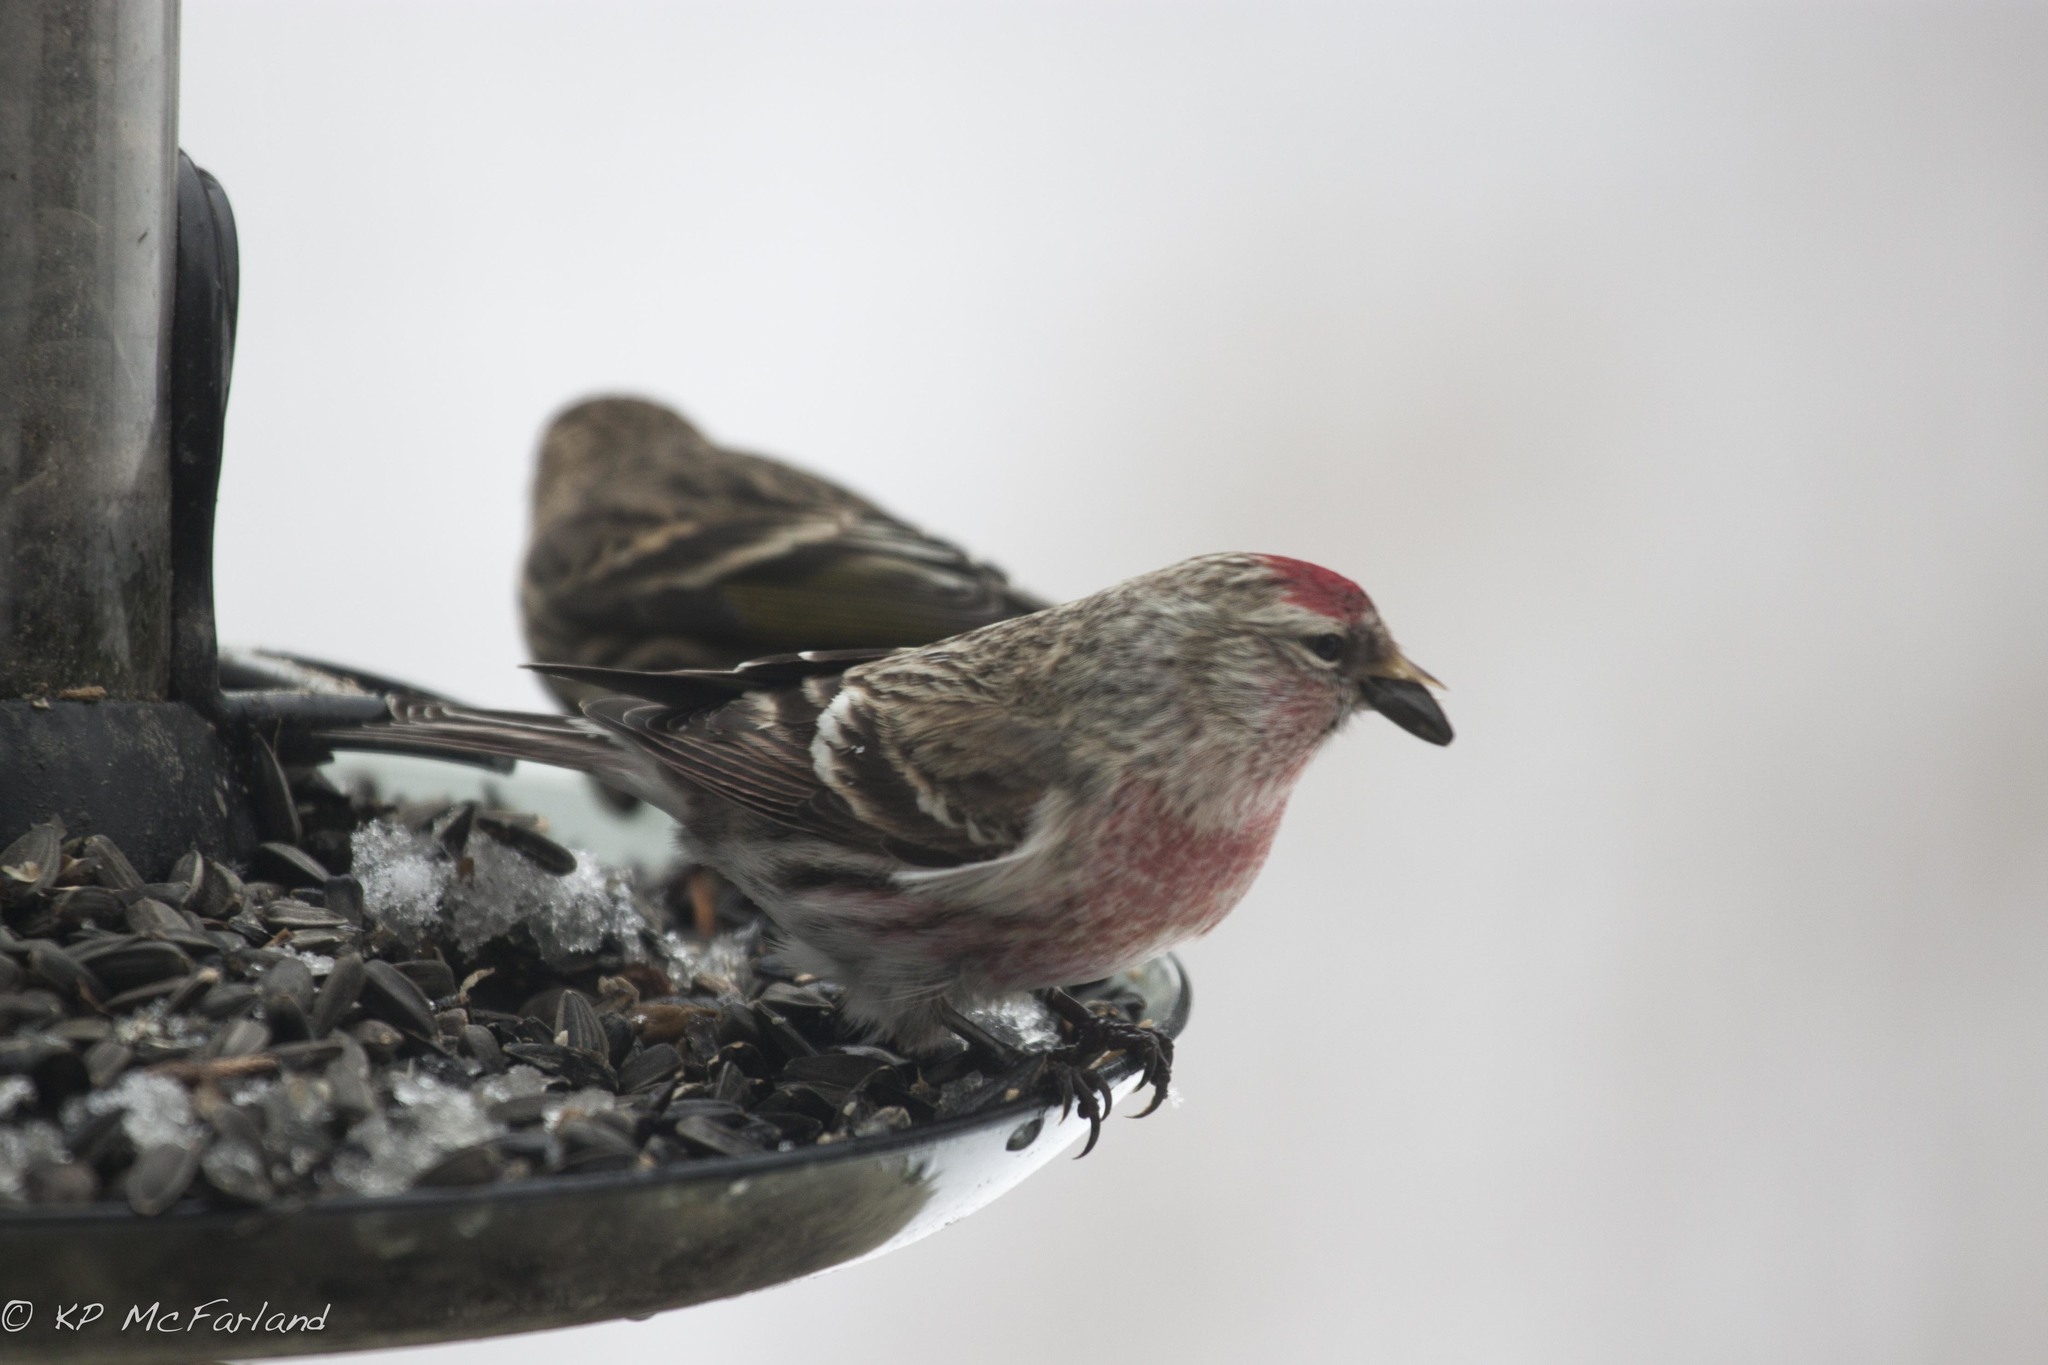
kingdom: Animalia
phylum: Chordata
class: Aves
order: Passeriformes
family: Fringillidae
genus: Acanthis
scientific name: Acanthis flammea
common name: Common redpoll
